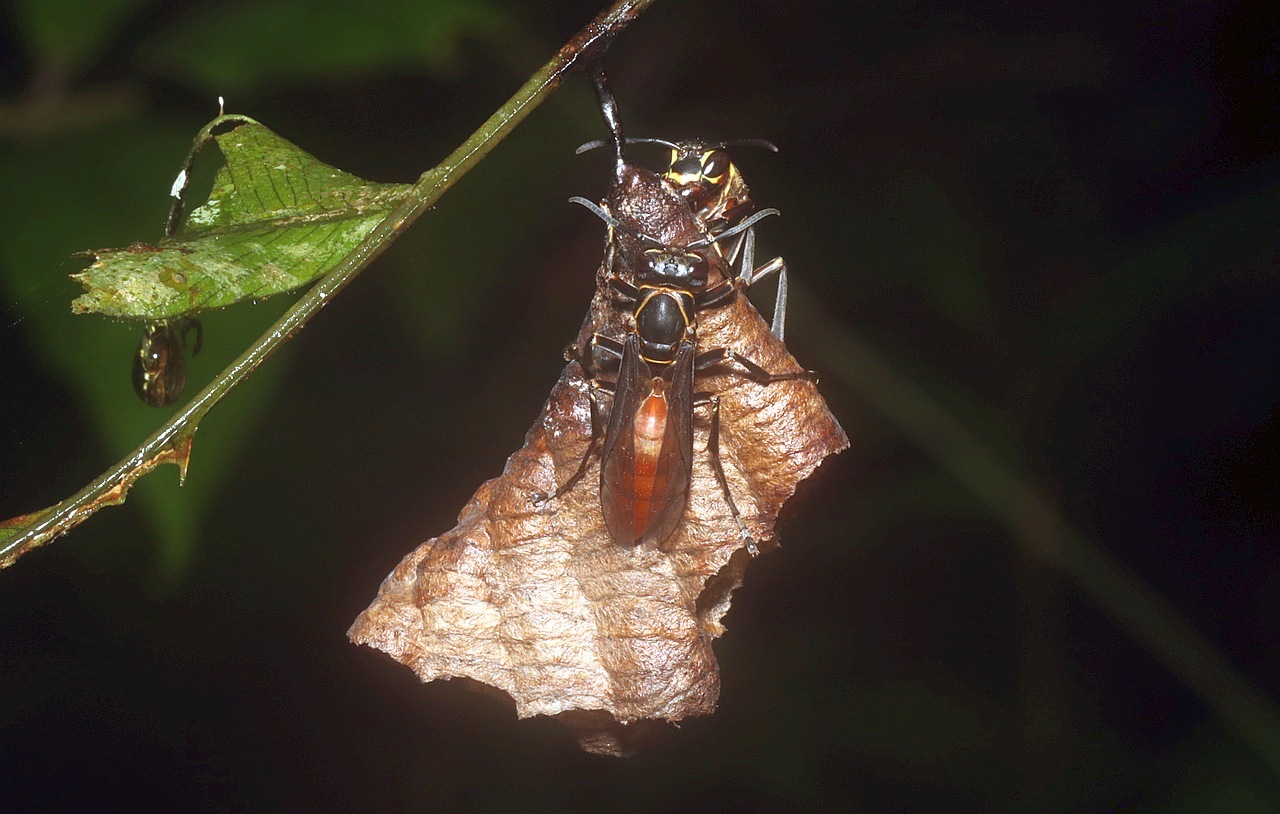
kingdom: Animalia
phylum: Arthropoda
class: Insecta
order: Hymenoptera
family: Eumenidae
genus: Polistes
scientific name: Polistes occipitalis
